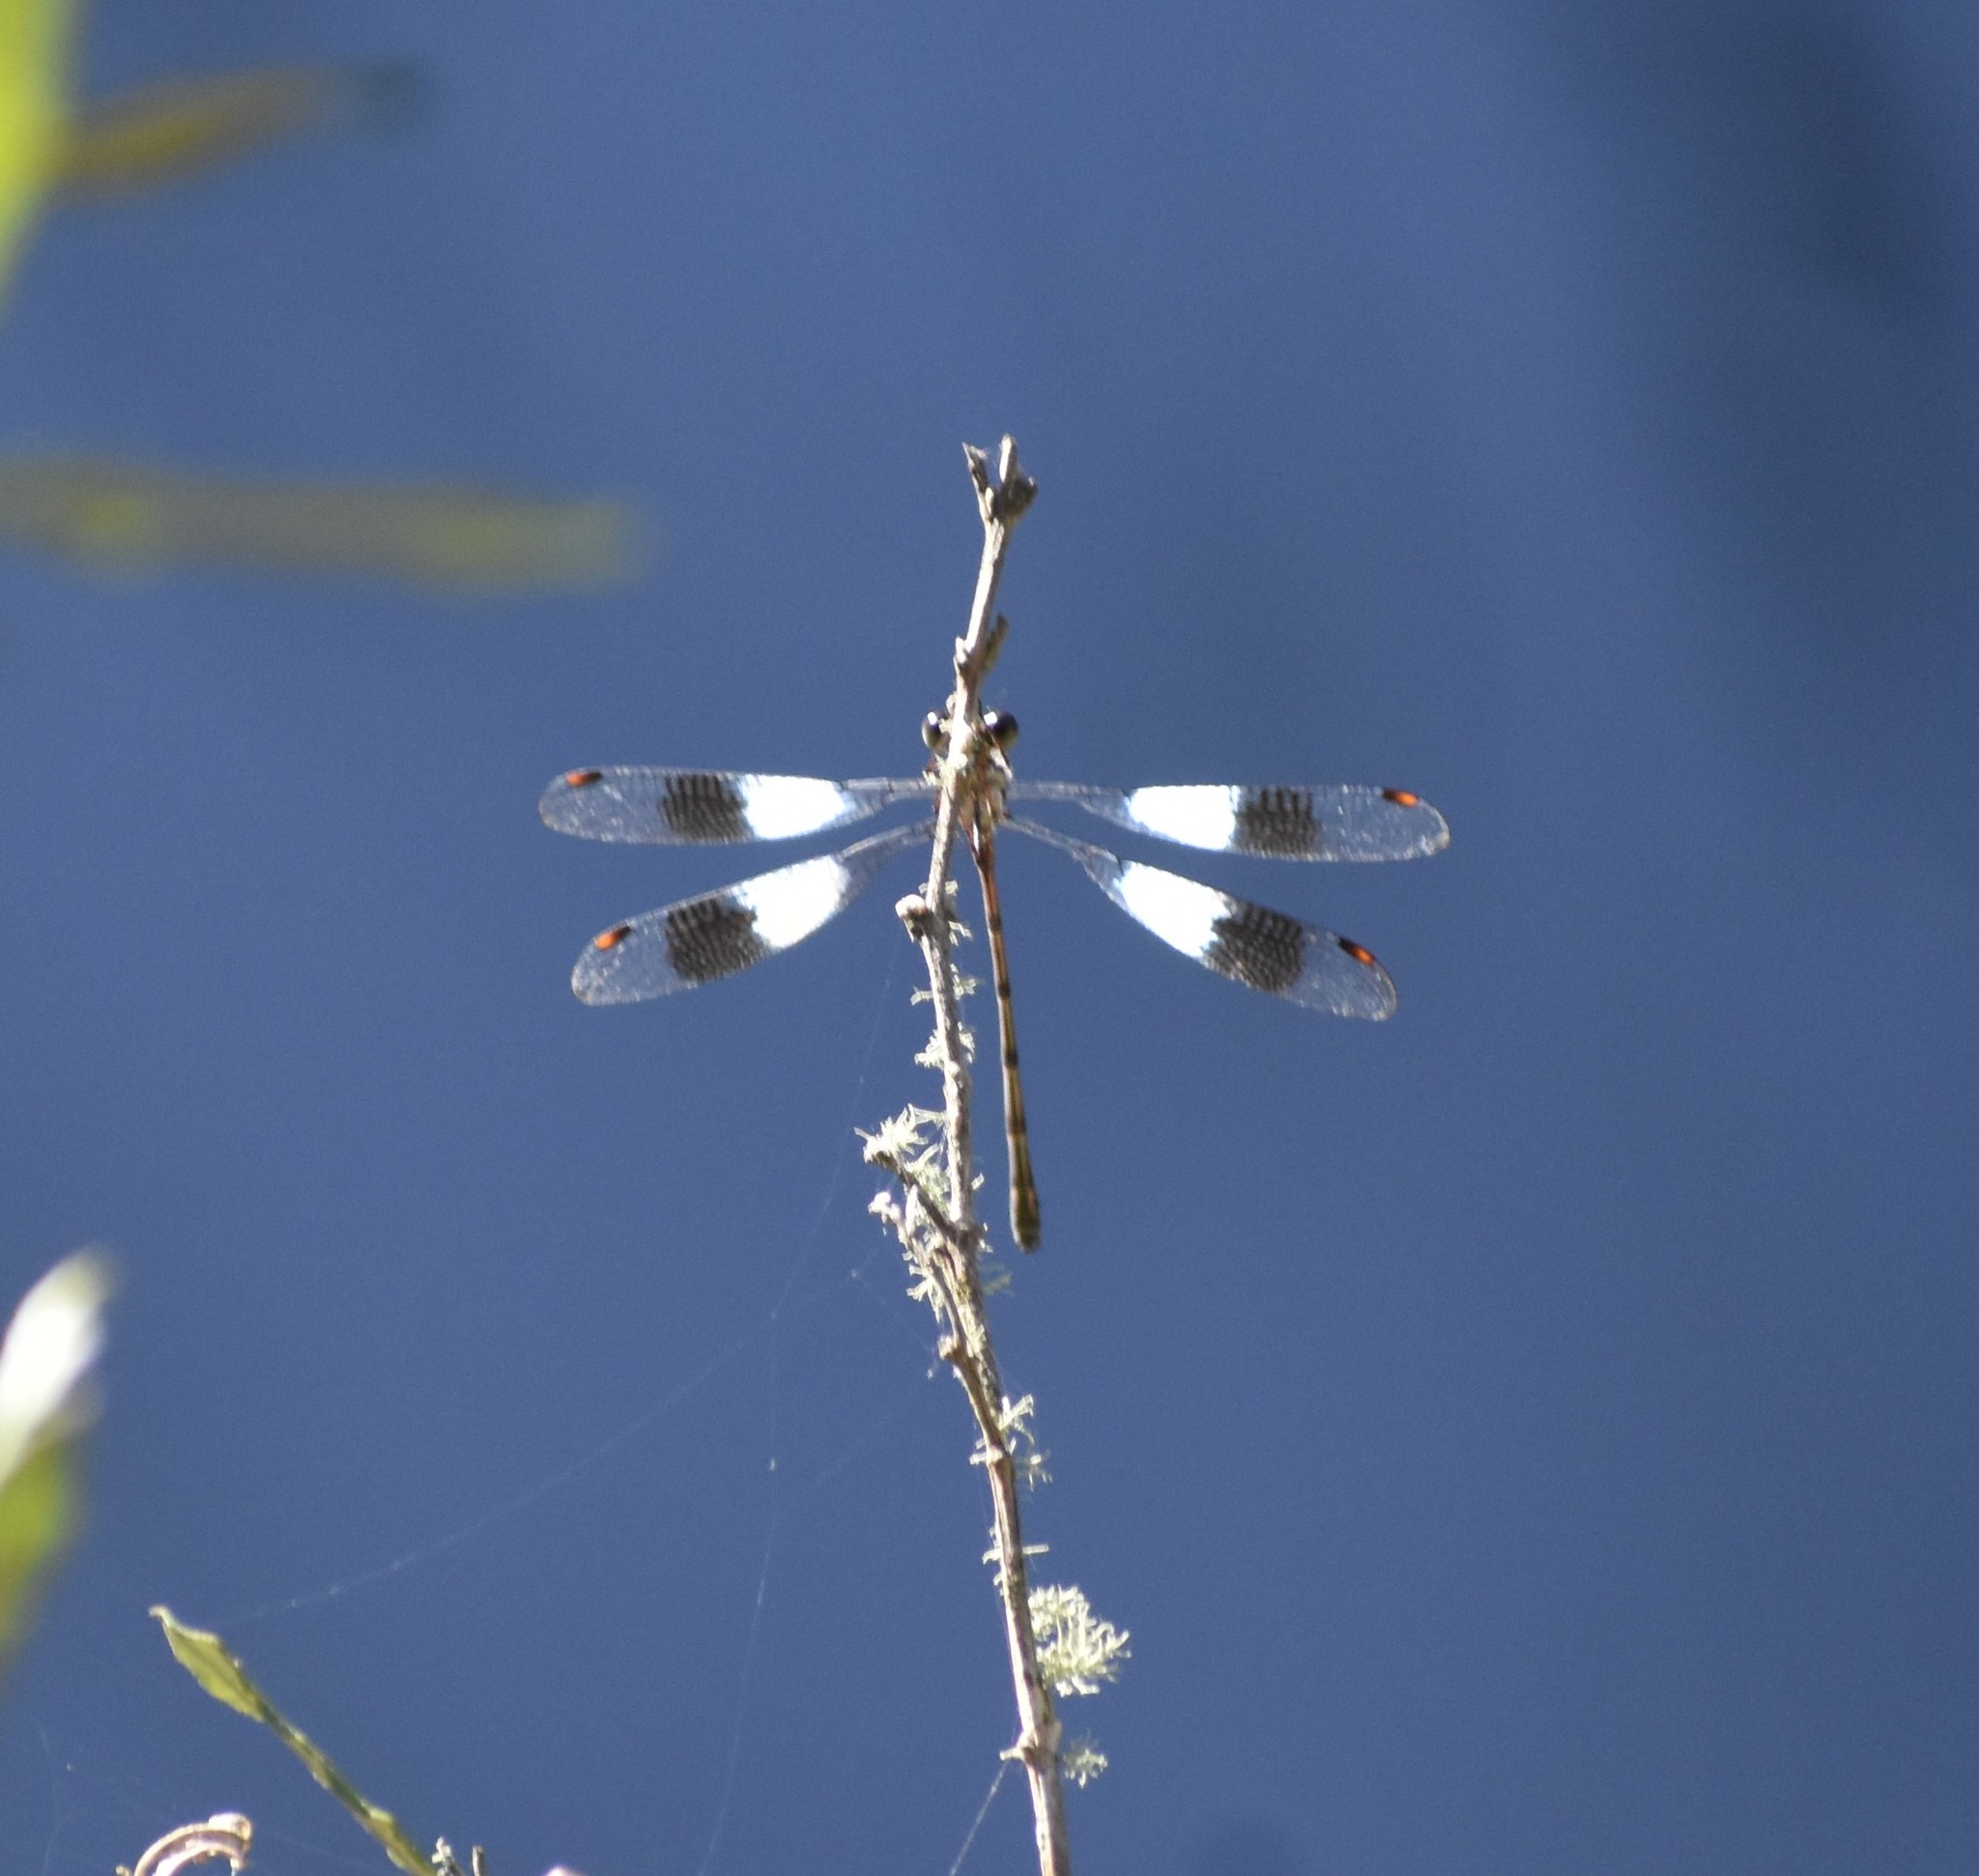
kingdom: Animalia
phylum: Arthropoda
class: Insecta
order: Odonata
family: Synlestidae
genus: Chlorolestes
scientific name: Chlorolestes tessellatus
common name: Forest malachite
